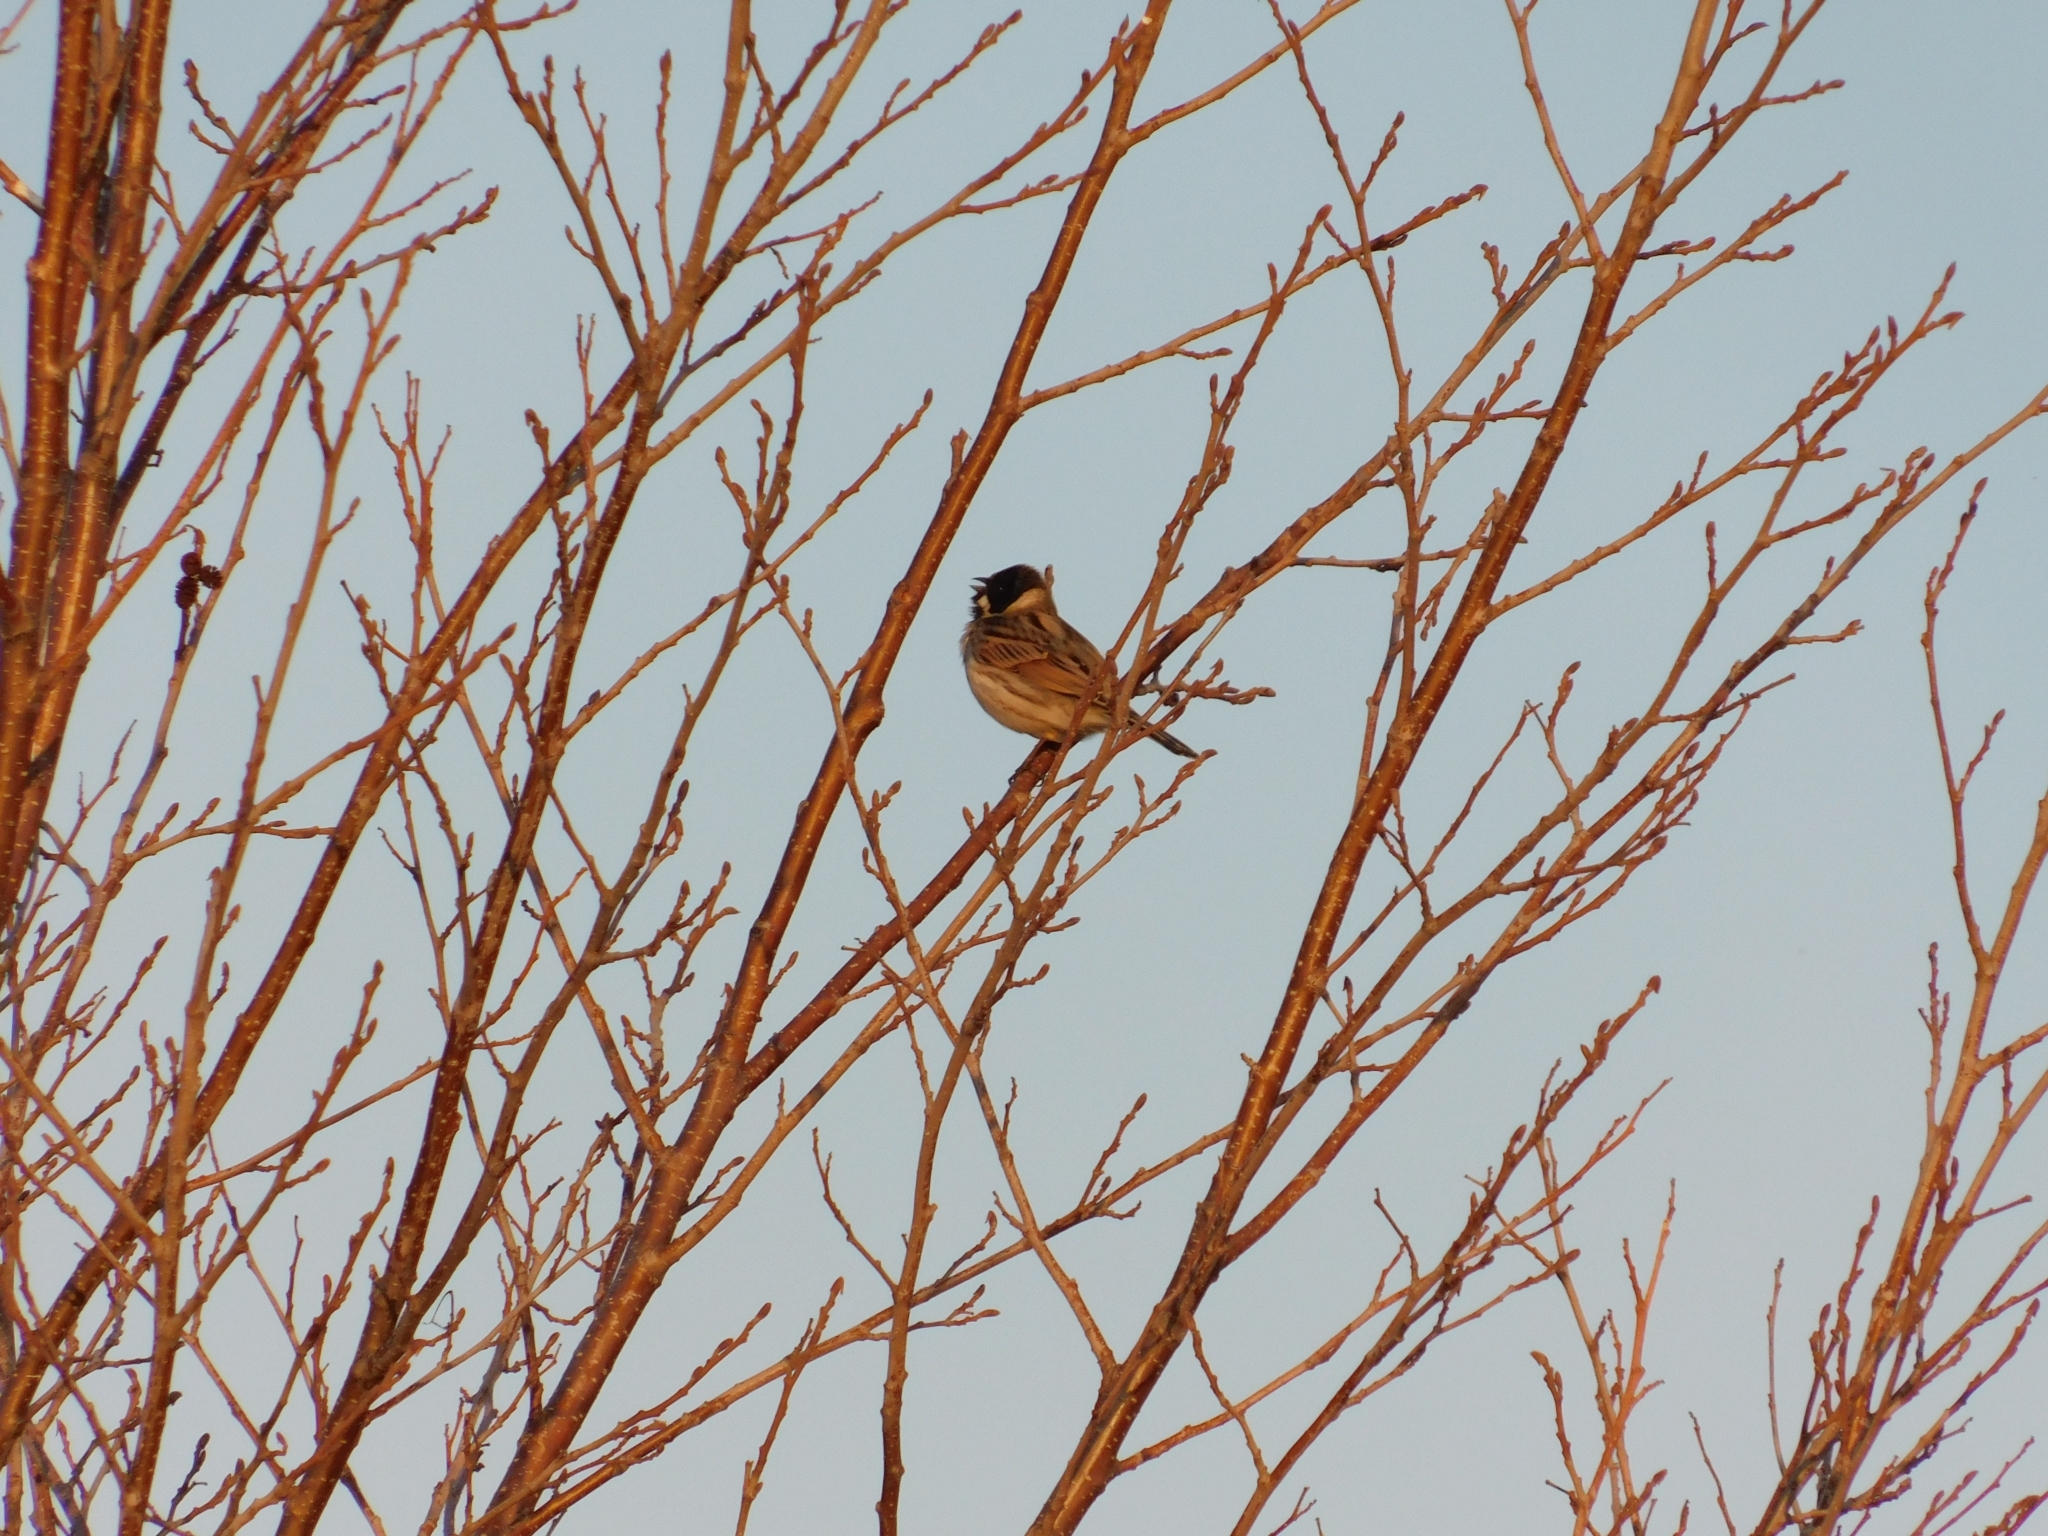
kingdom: Animalia
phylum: Chordata
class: Aves
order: Passeriformes
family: Emberizidae
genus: Emberiza
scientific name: Emberiza schoeniclus
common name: Reed bunting
